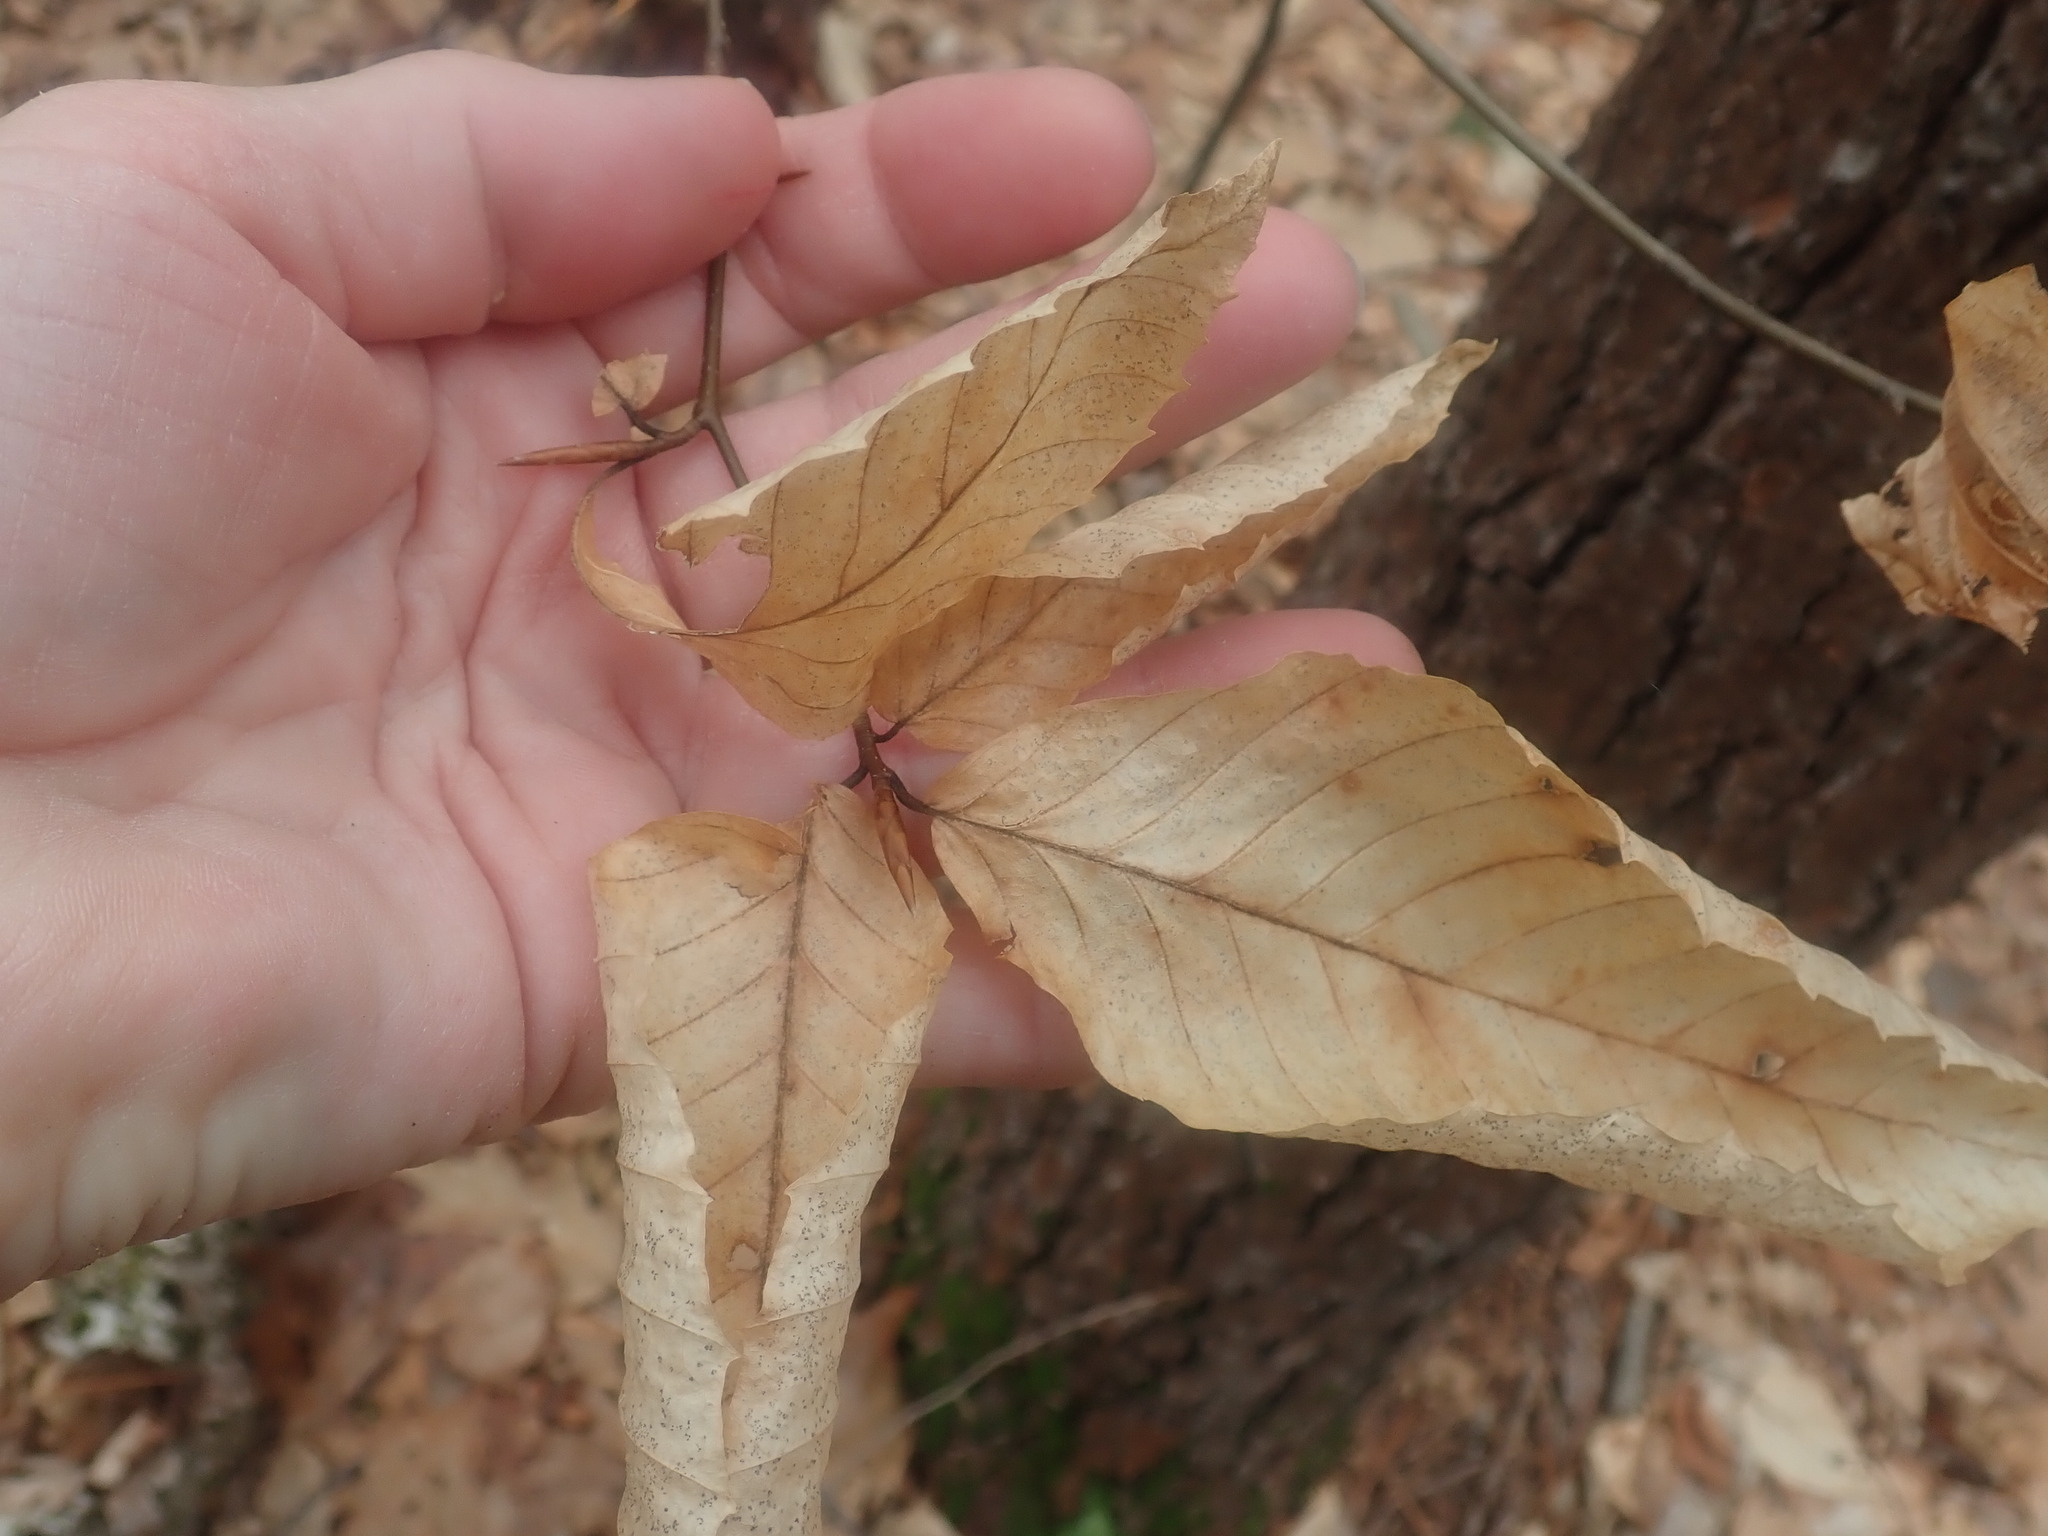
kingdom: Plantae
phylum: Tracheophyta
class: Magnoliopsida
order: Fagales
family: Fagaceae
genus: Fagus
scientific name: Fagus grandifolia
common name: American beech
